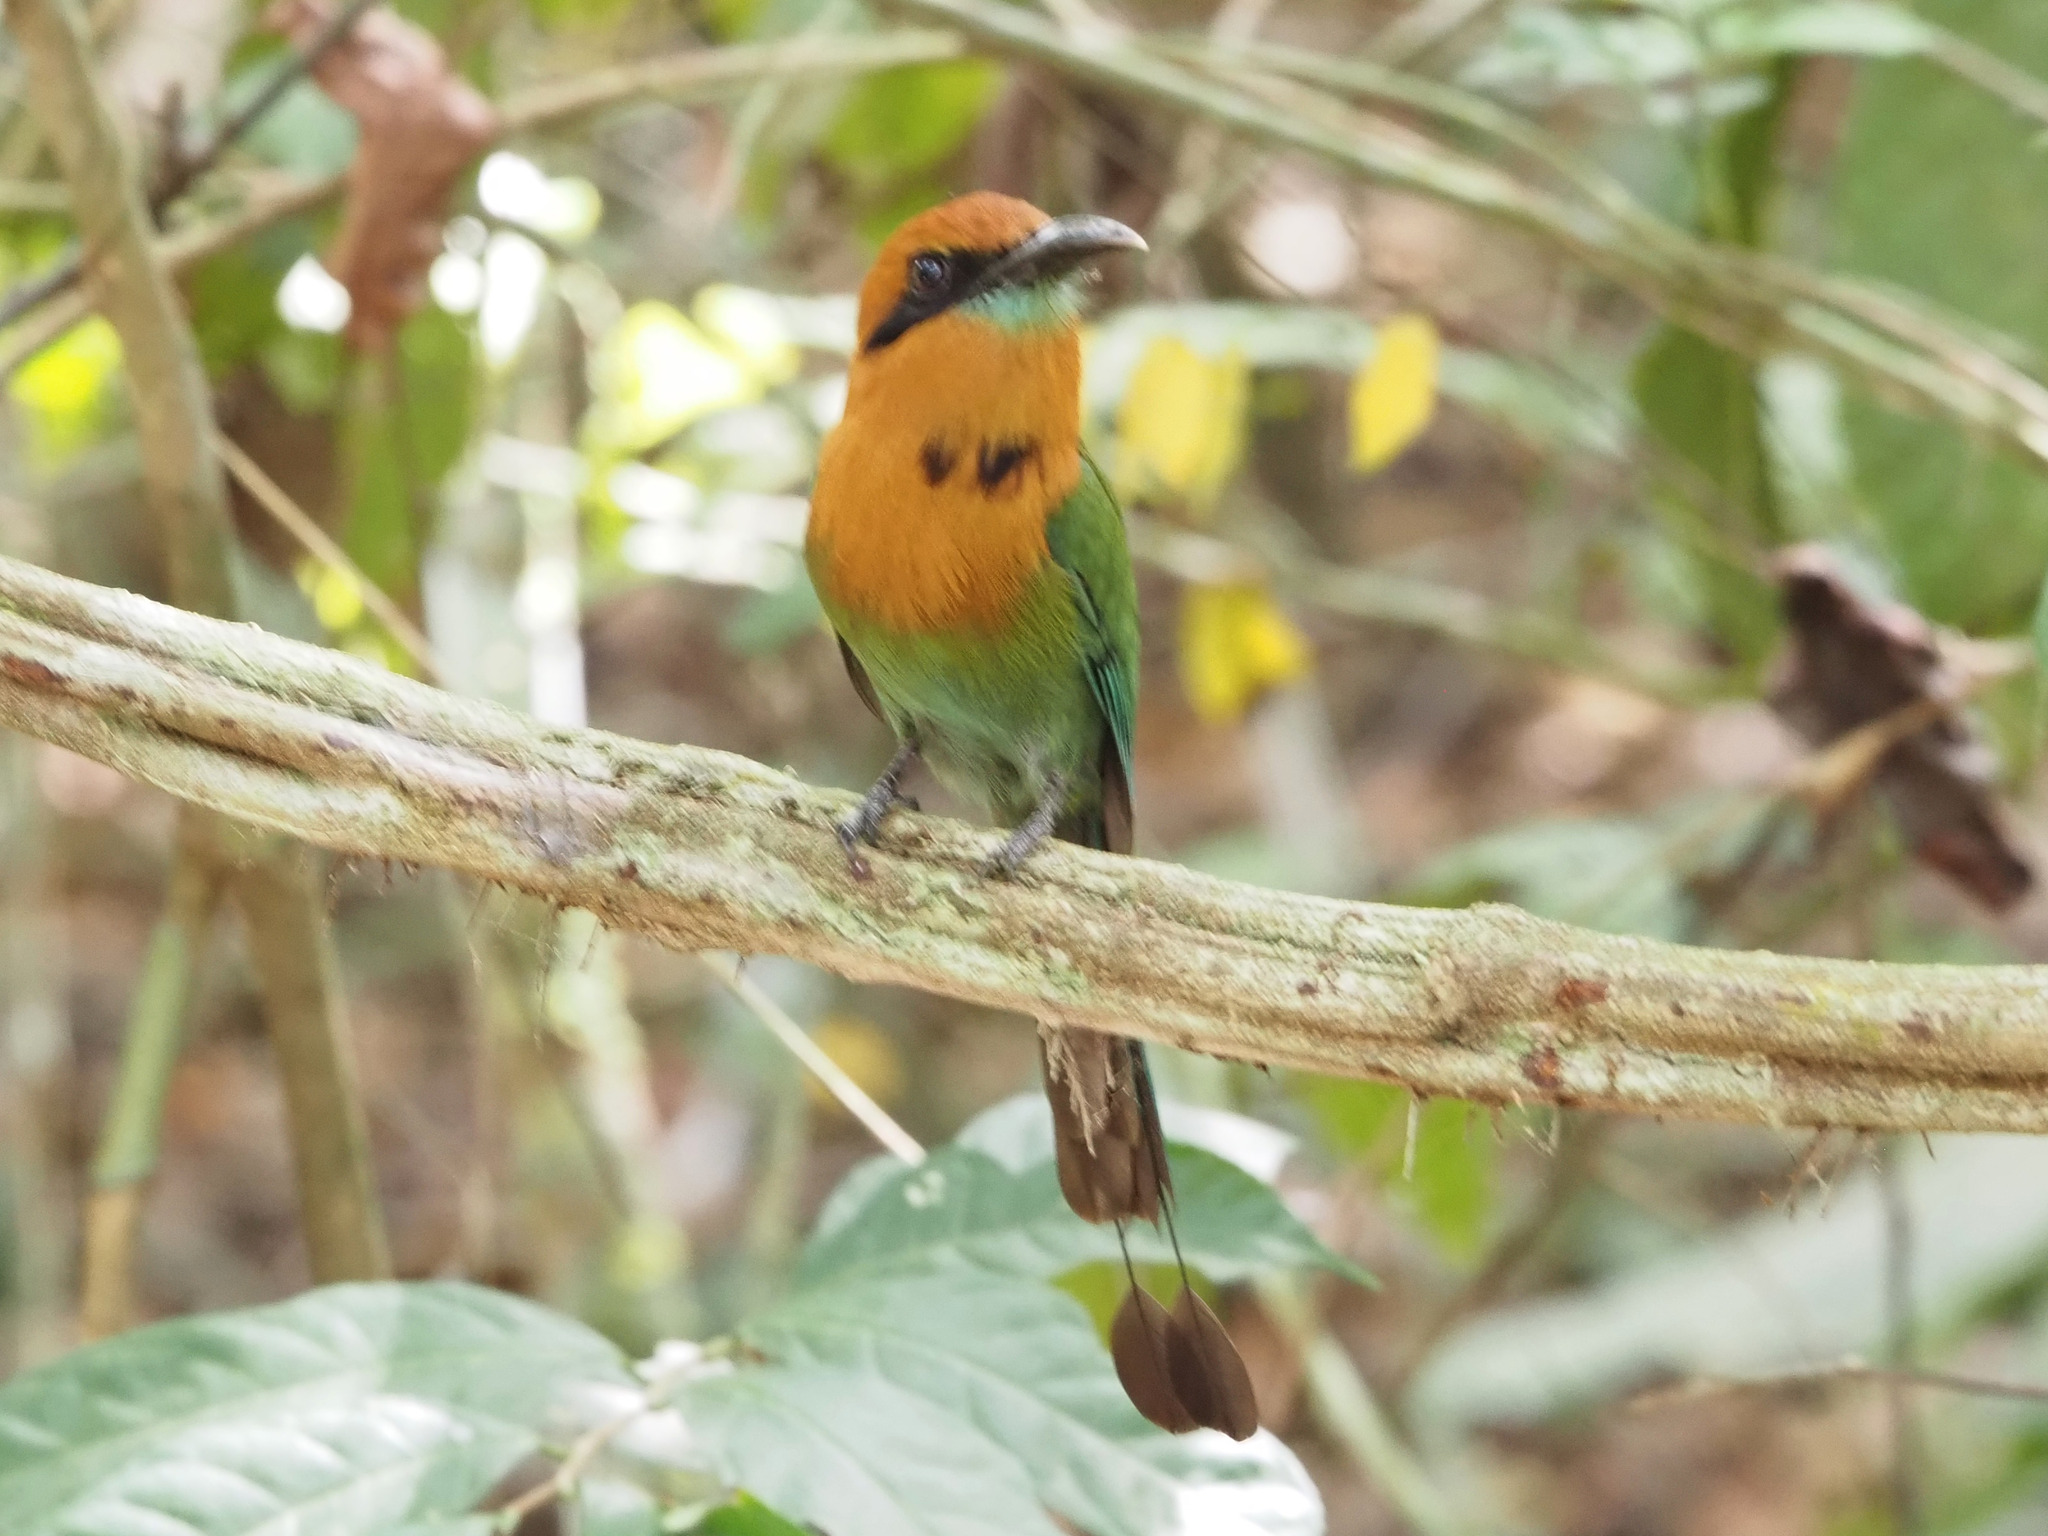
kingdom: Animalia
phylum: Chordata
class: Aves
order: Coraciiformes
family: Momotidae
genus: Electron
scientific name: Electron platyrhynchum
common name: Broad-billed motmot
